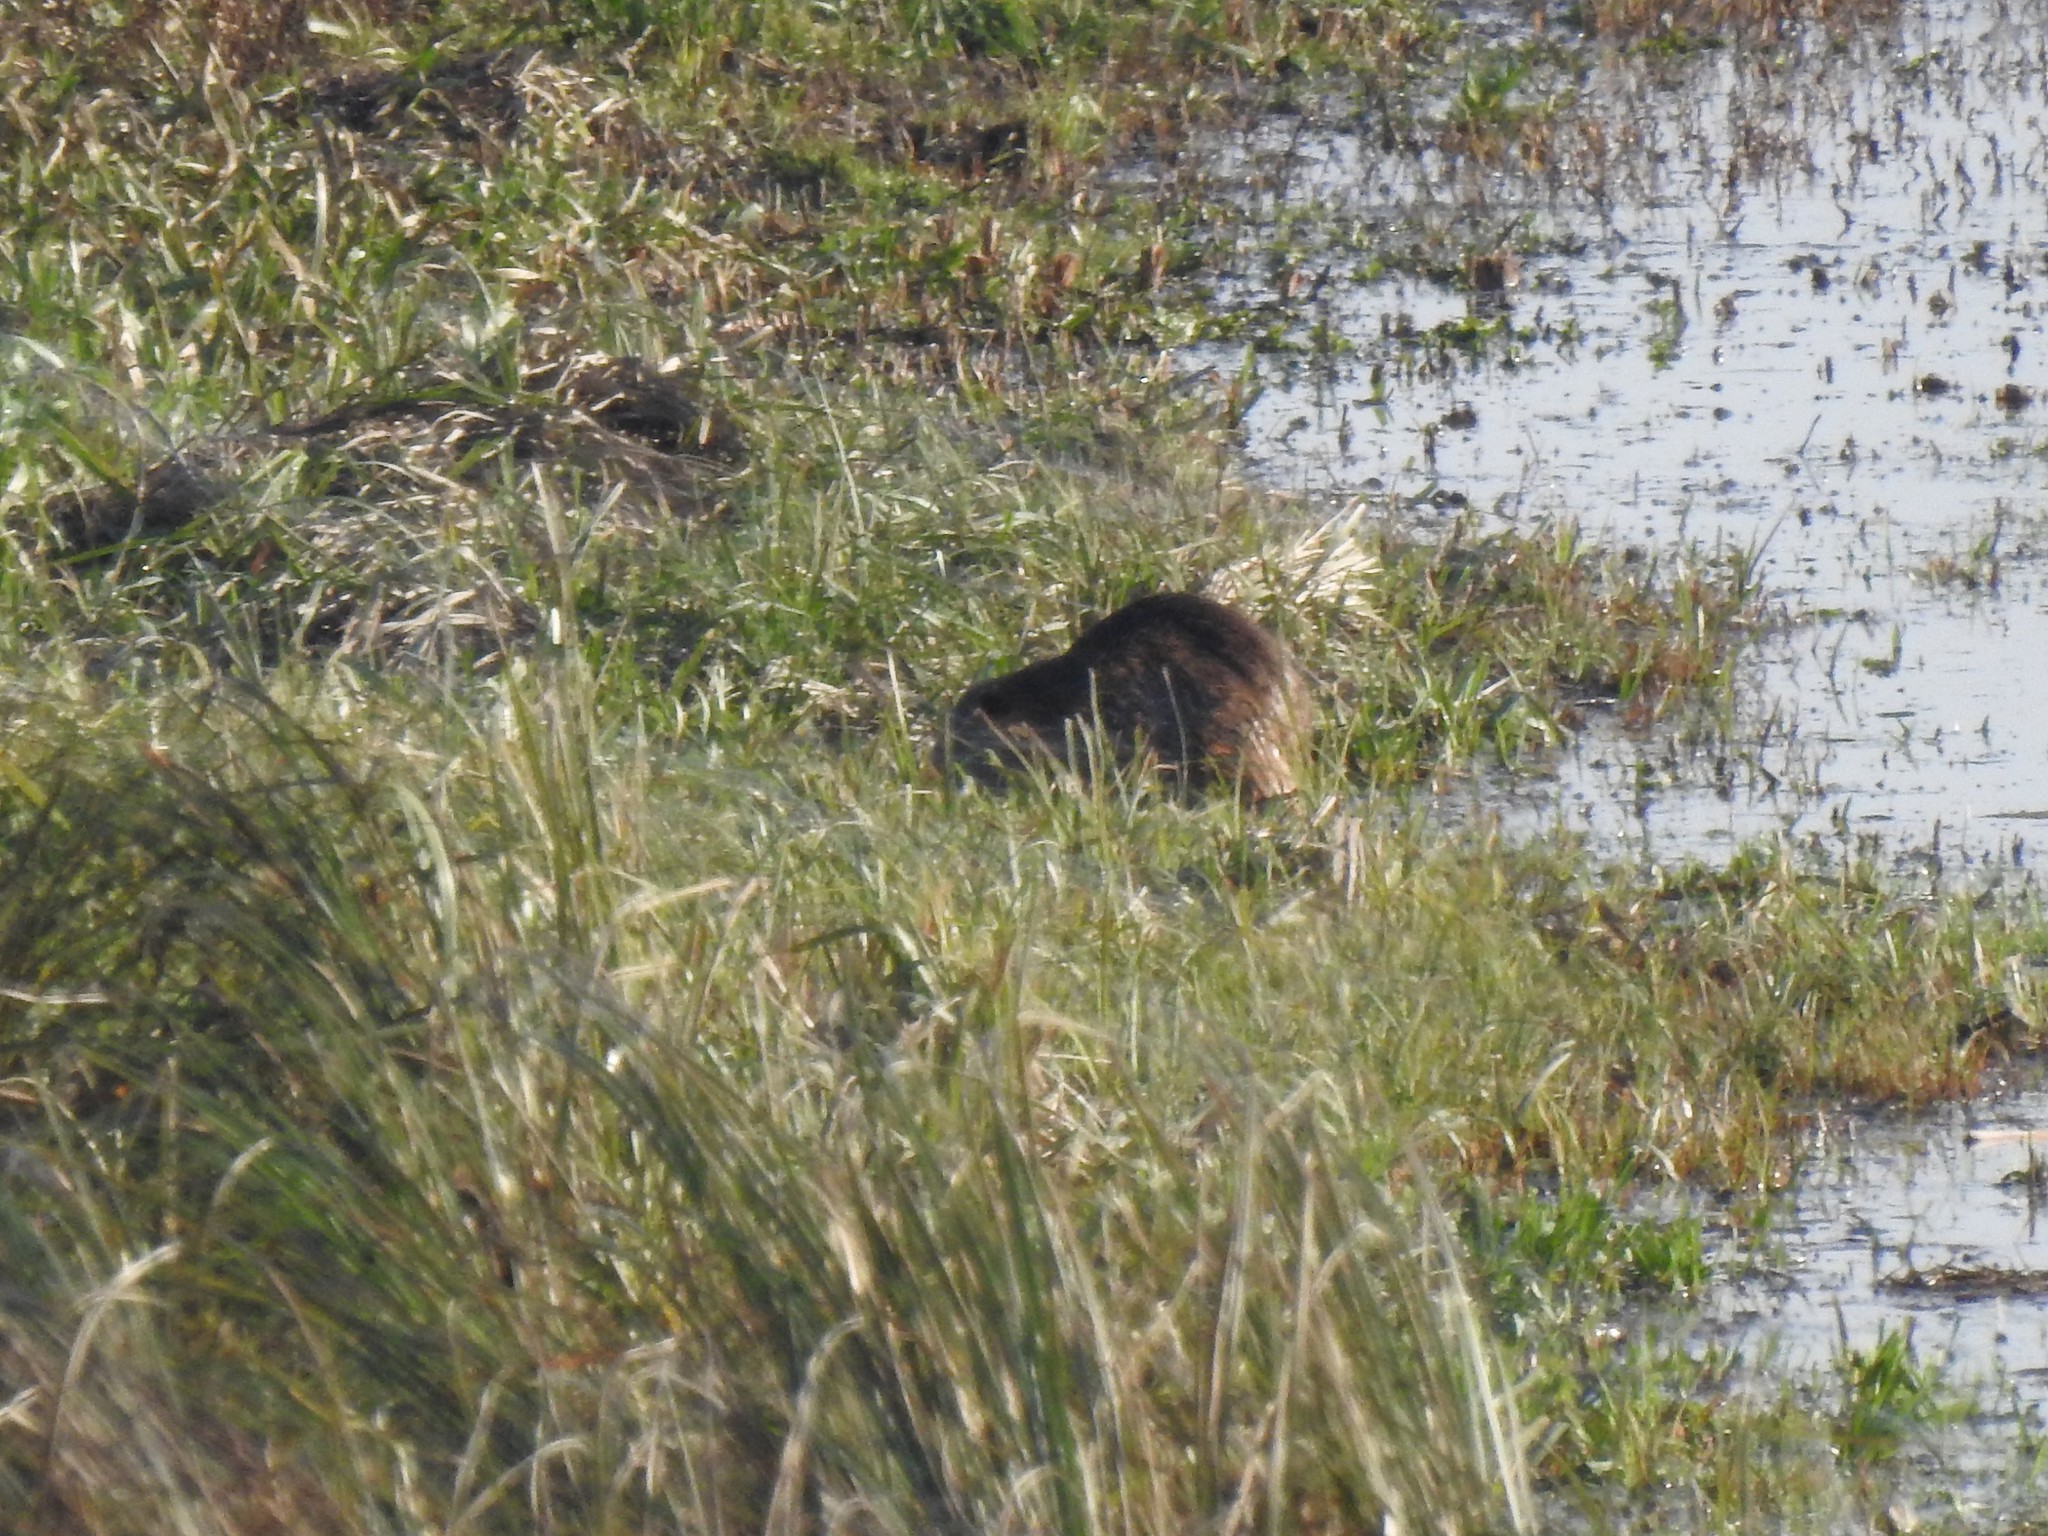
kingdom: Animalia
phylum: Chordata
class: Mammalia
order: Rodentia
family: Myocastoridae
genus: Myocastor
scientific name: Myocastor coypus
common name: Coypu
